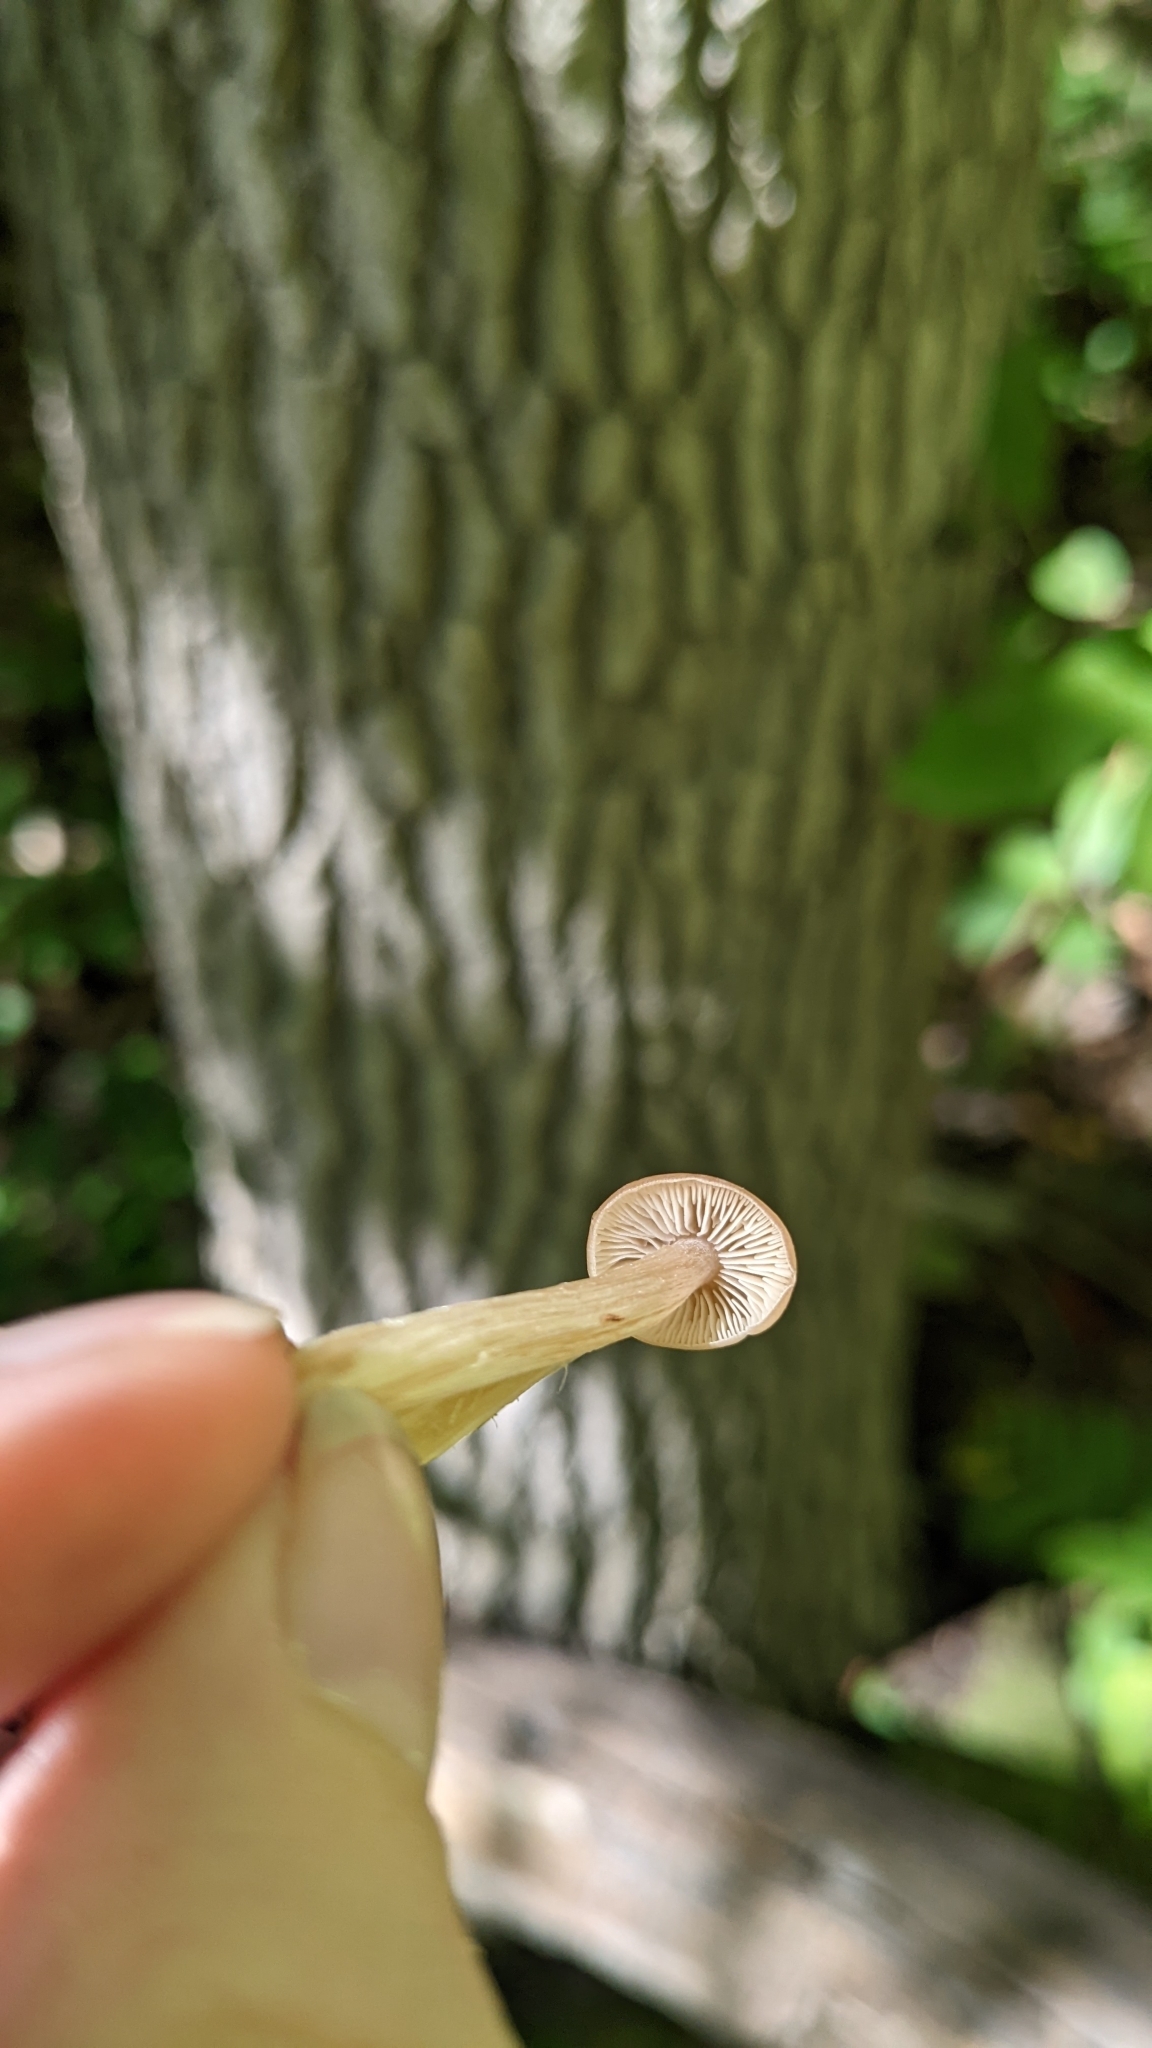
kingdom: Fungi
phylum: Basidiomycota
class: Agaricomycetes
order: Agaricales
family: Entolomataceae
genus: Entoloma
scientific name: Entoloma strictius
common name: Straight-stalked entoloma
